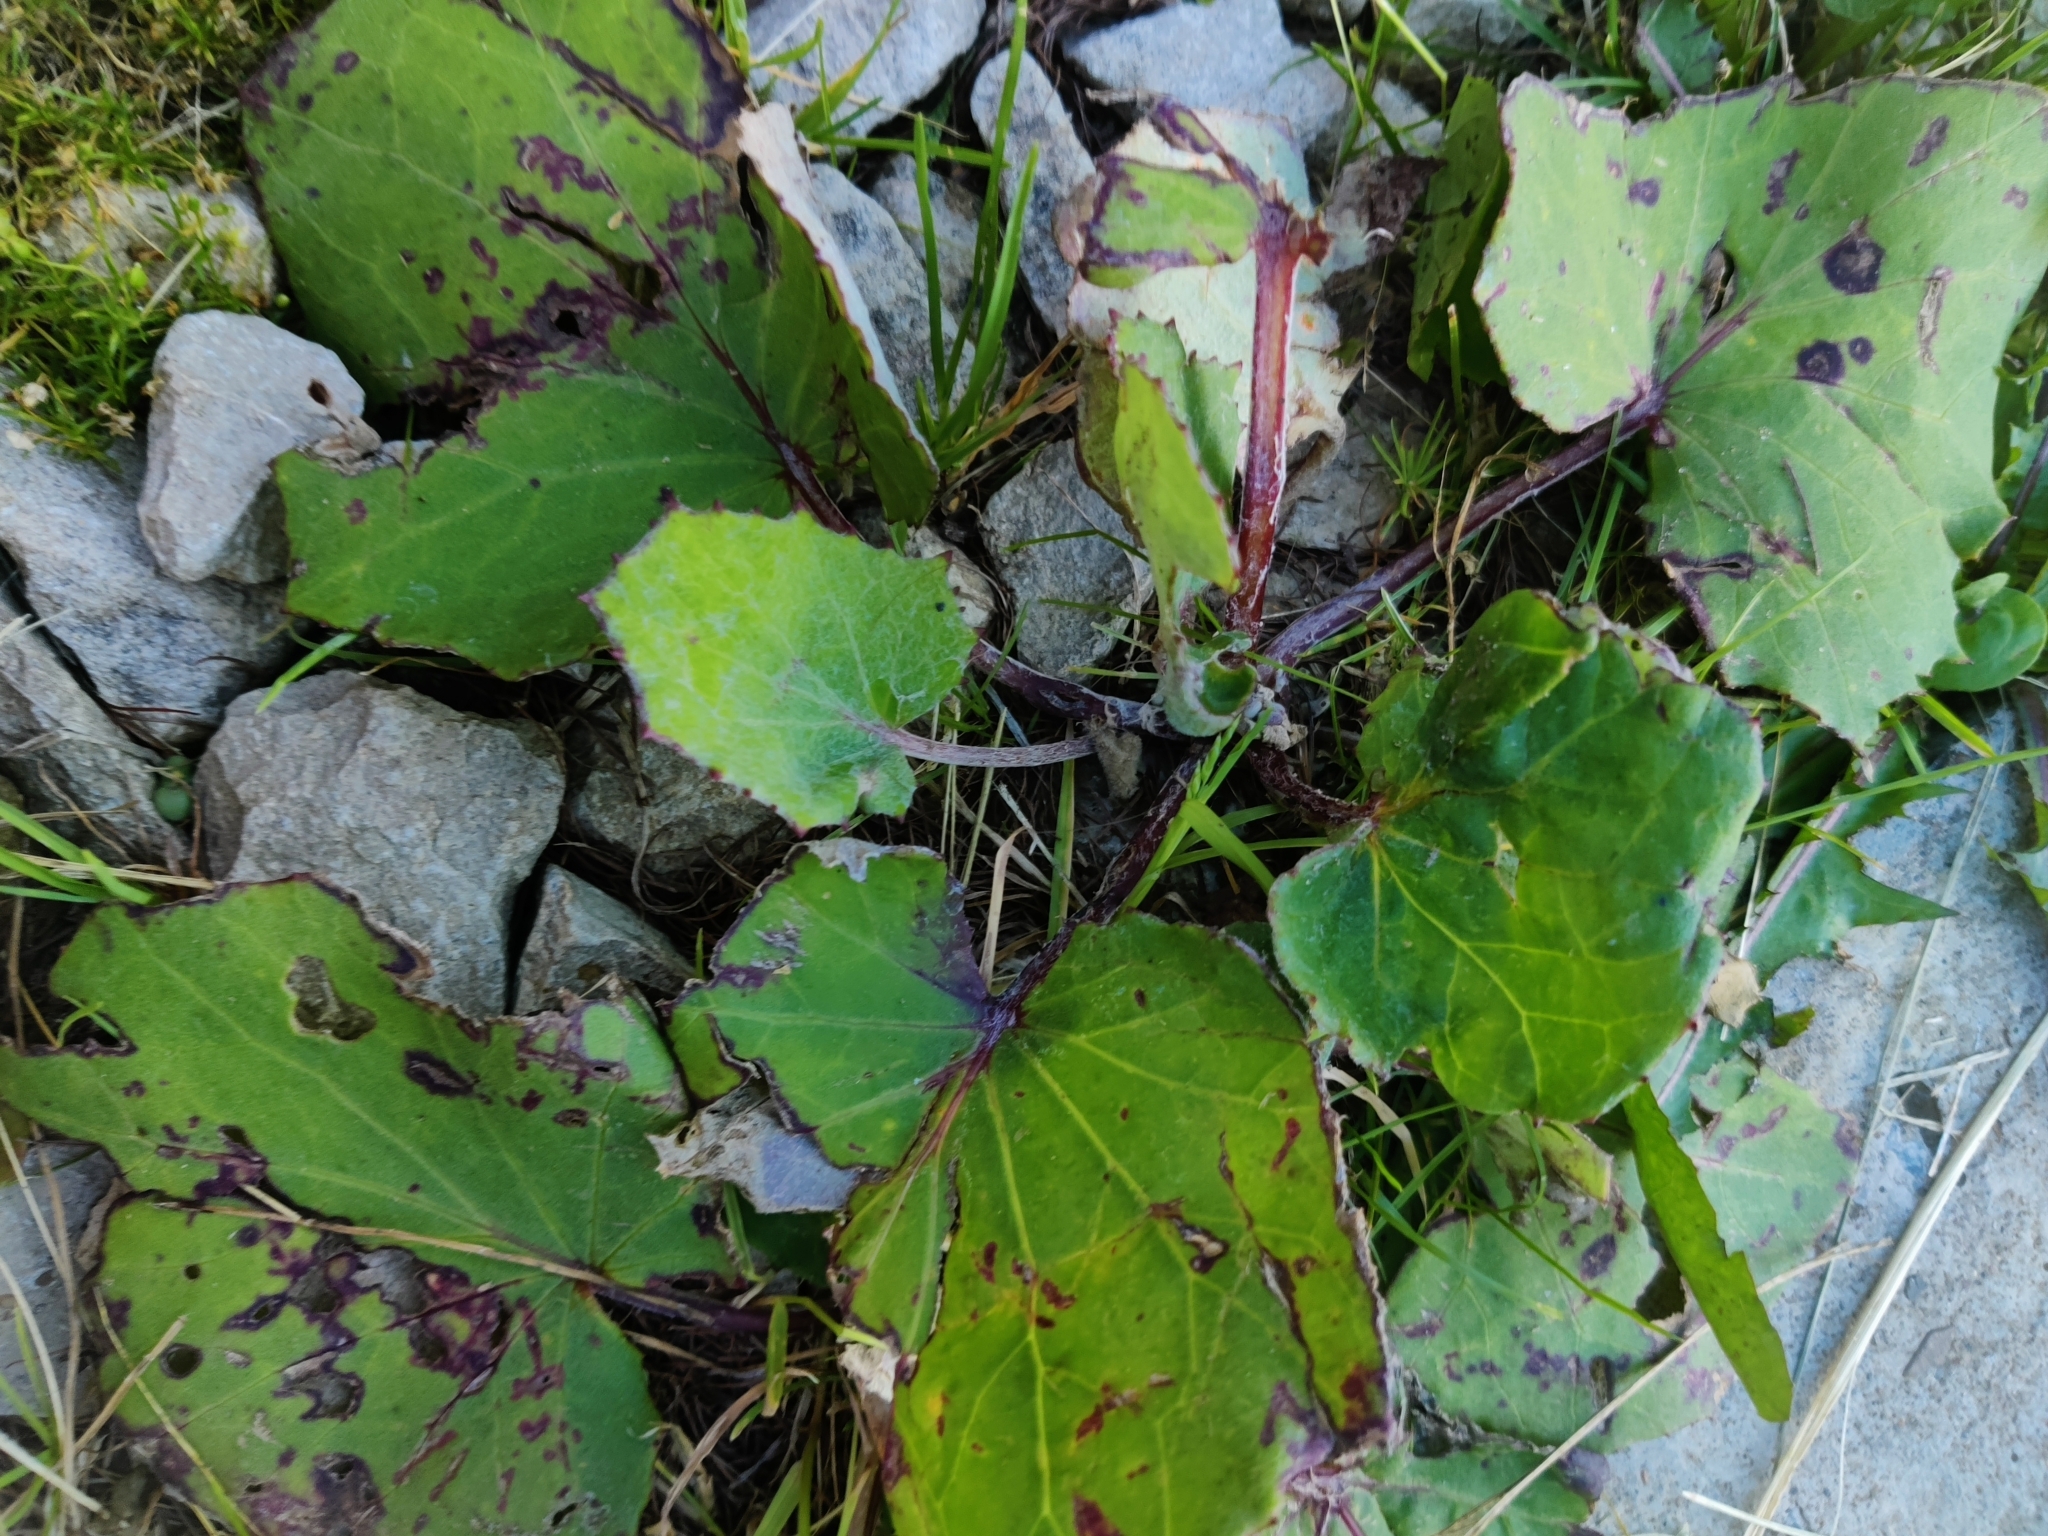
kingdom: Plantae
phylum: Tracheophyta
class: Magnoliopsida
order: Asterales
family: Asteraceae
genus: Tussilago
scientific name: Tussilago farfara
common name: Coltsfoot
